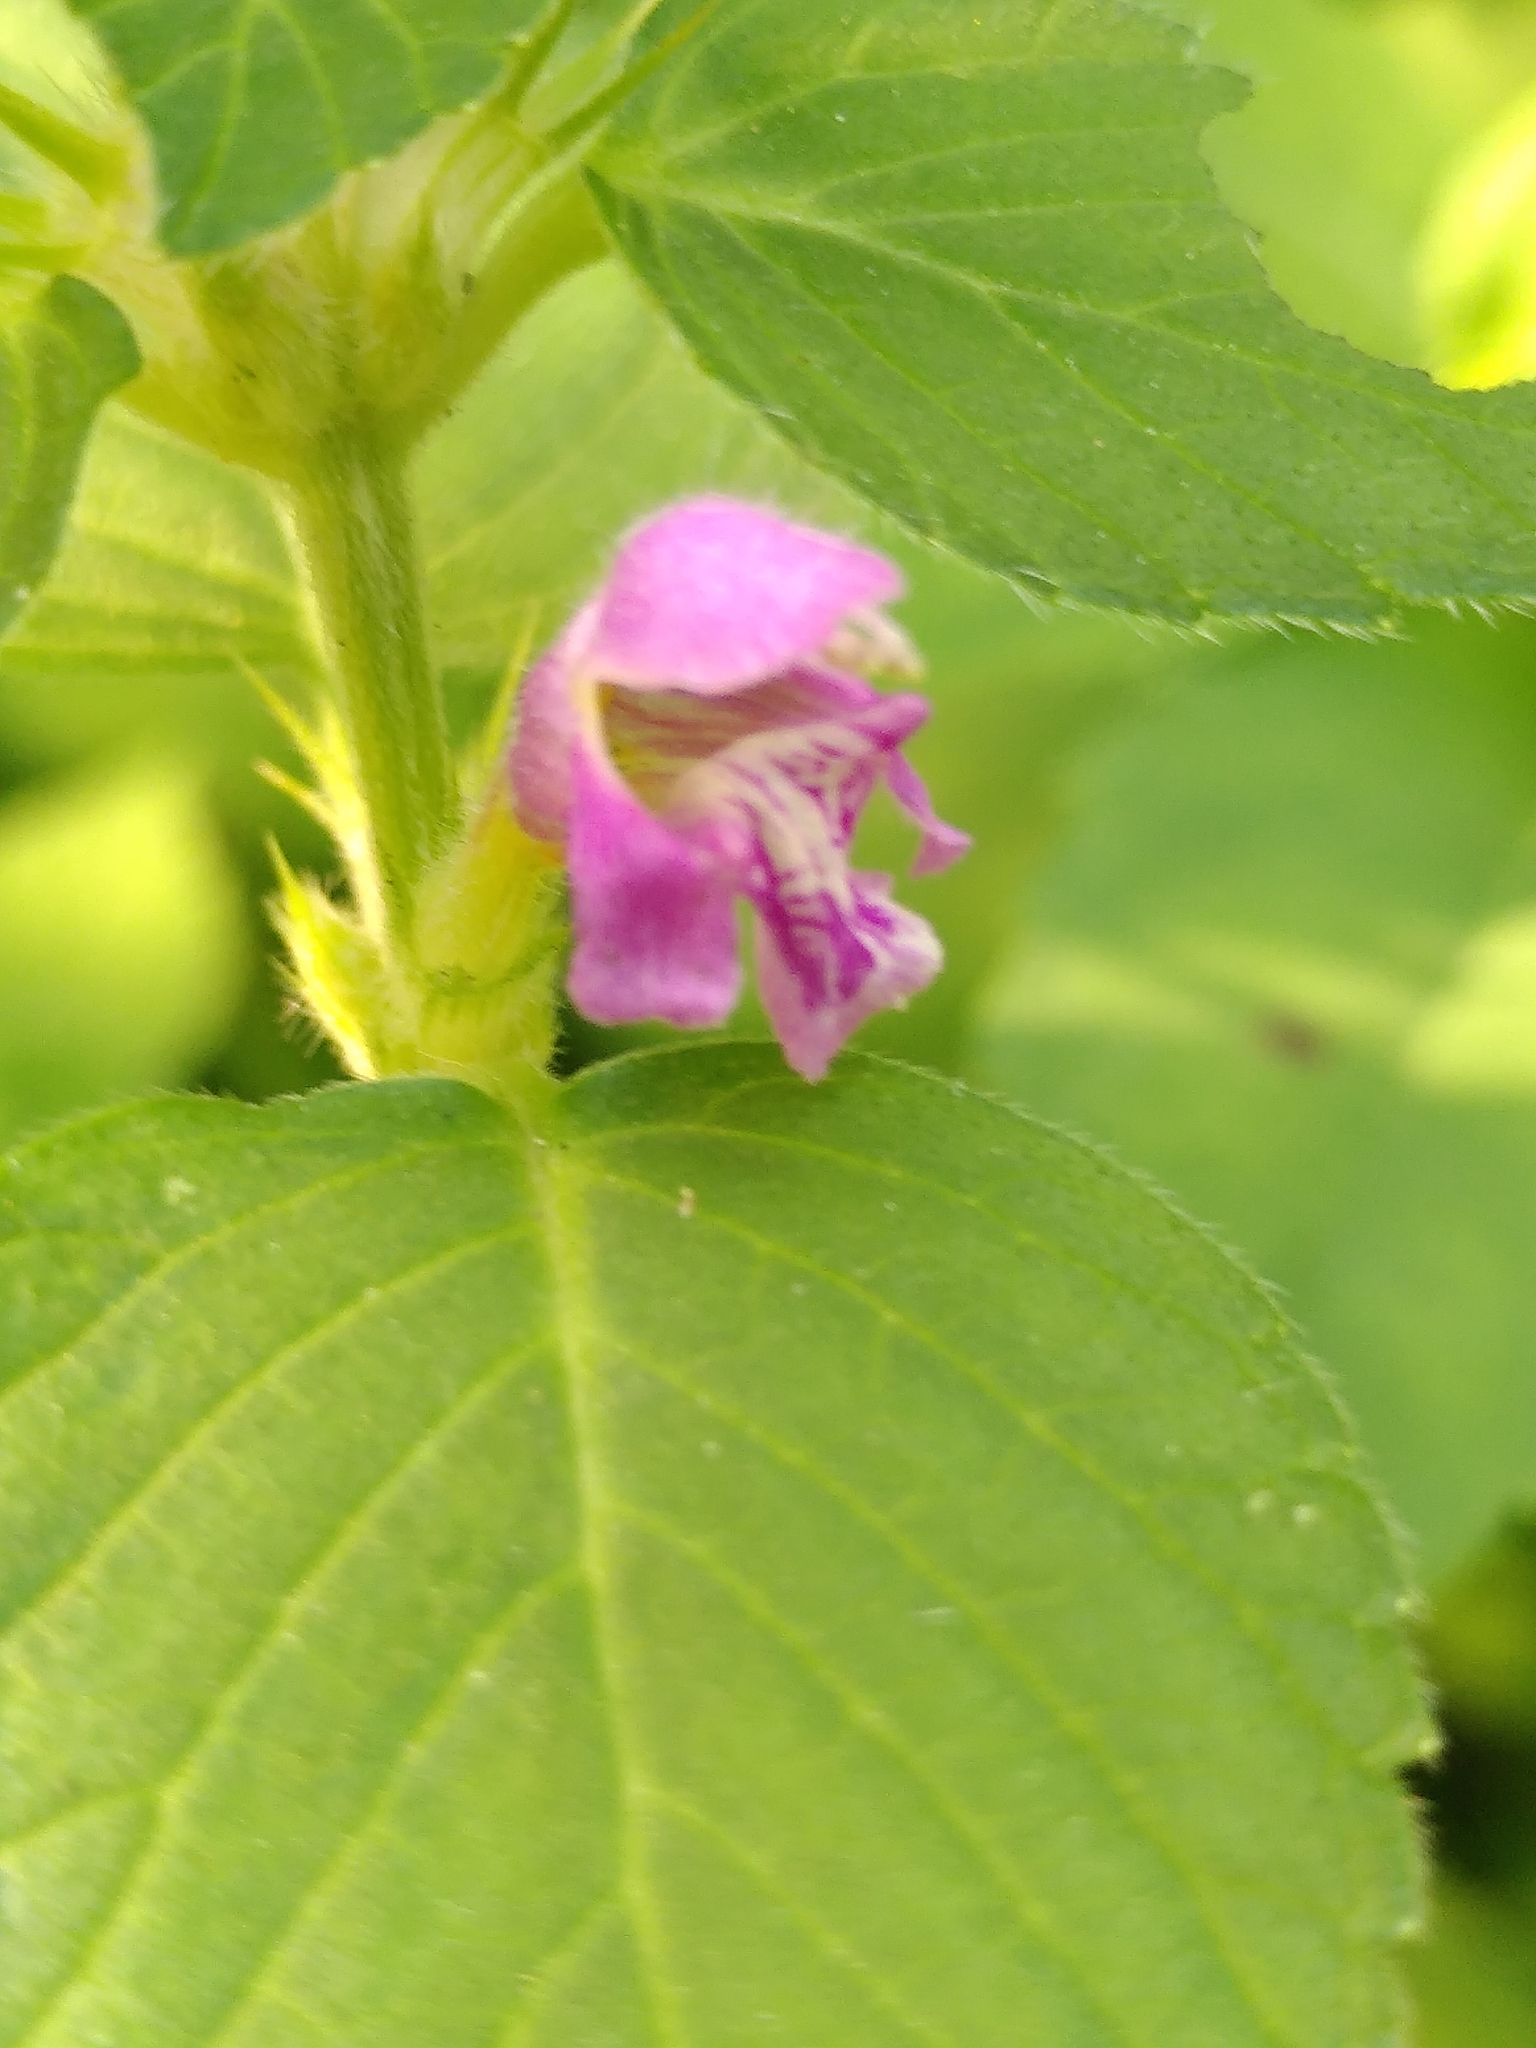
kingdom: Plantae
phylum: Tracheophyta
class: Magnoliopsida
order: Lamiales
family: Lamiaceae
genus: Galeopsis
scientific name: Galeopsis tetrahit
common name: Common hemp-nettle
